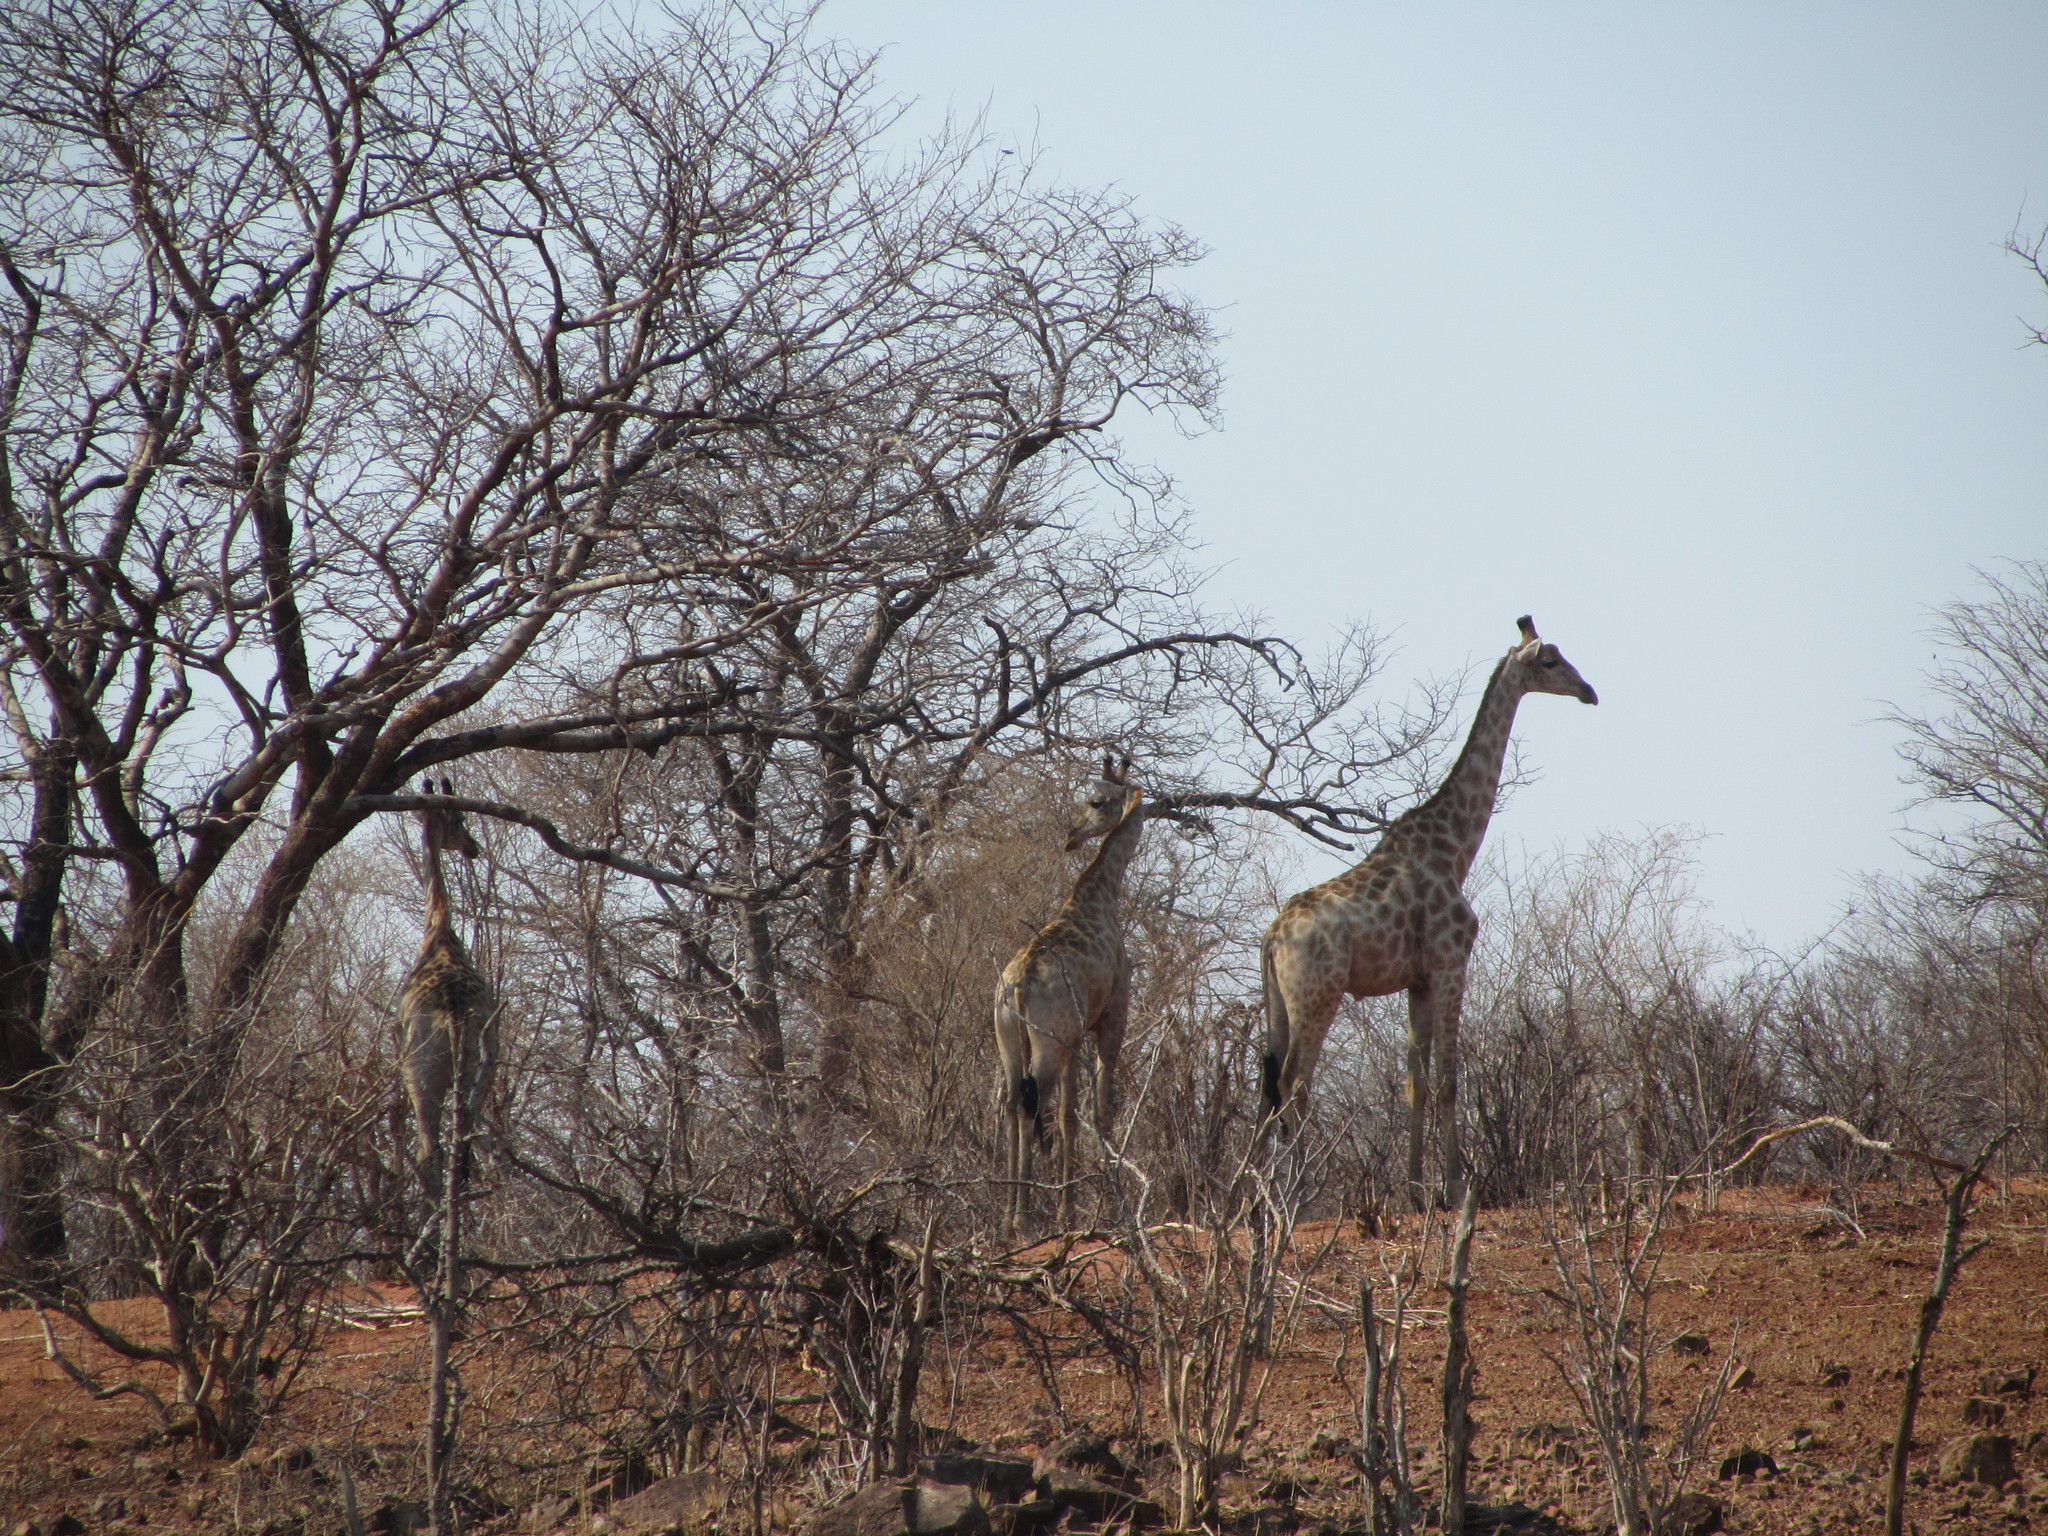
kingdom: Animalia
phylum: Chordata
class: Mammalia
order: Artiodactyla
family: Giraffidae
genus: Giraffa
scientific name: Giraffa giraffa
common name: Southern giraffe
